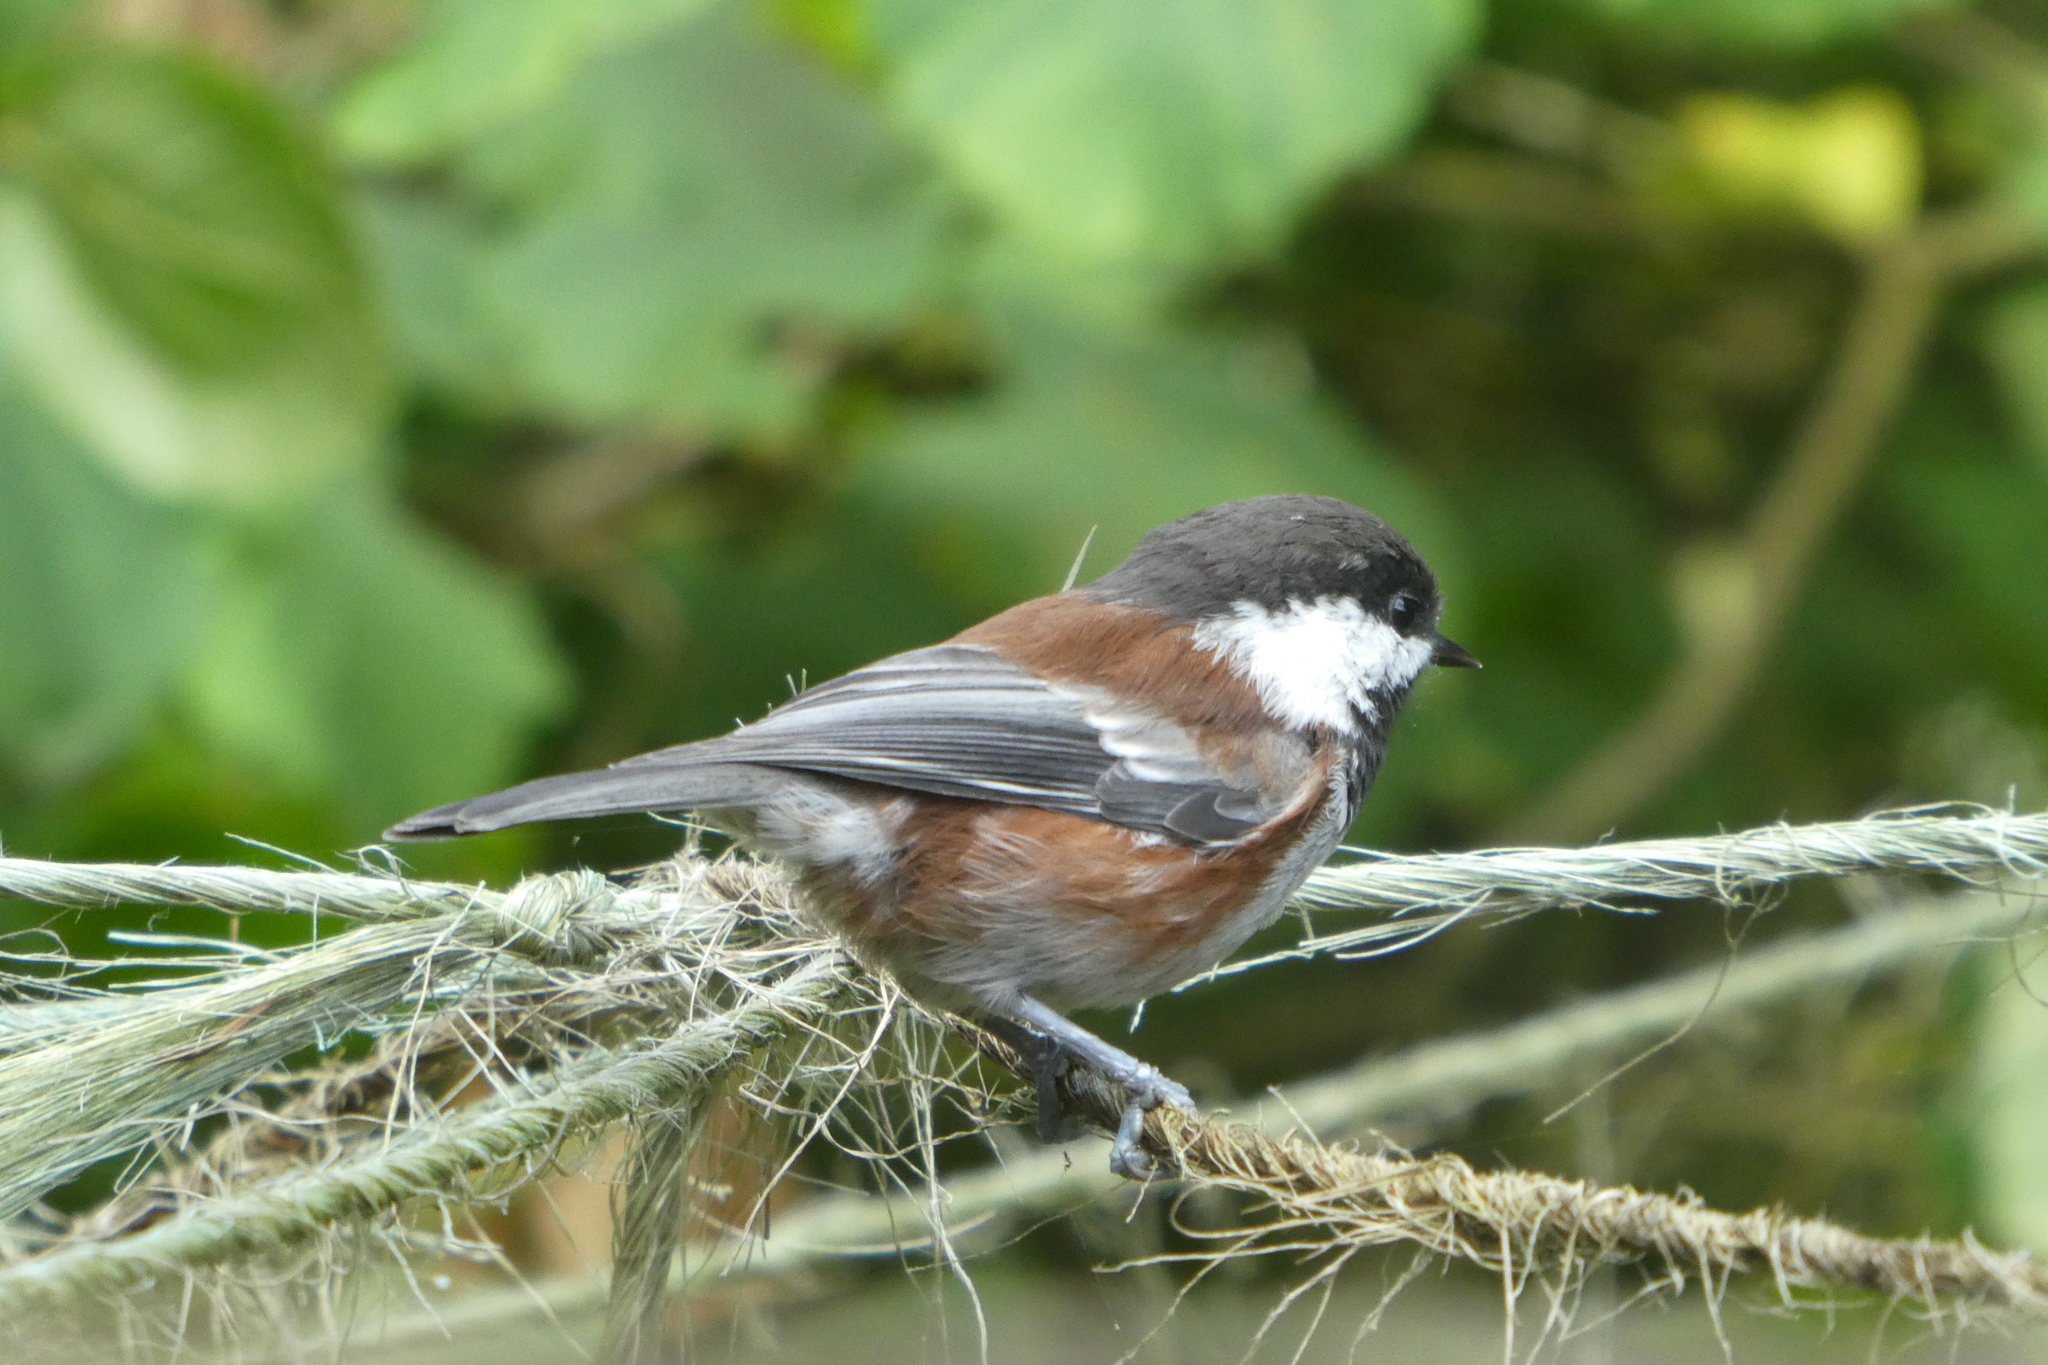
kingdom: Animalia
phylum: Chordata
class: Aves
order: Passeriformes
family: Paridae
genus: Poecile
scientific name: Poecile rufescens
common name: Chestnut-backed chickadee
